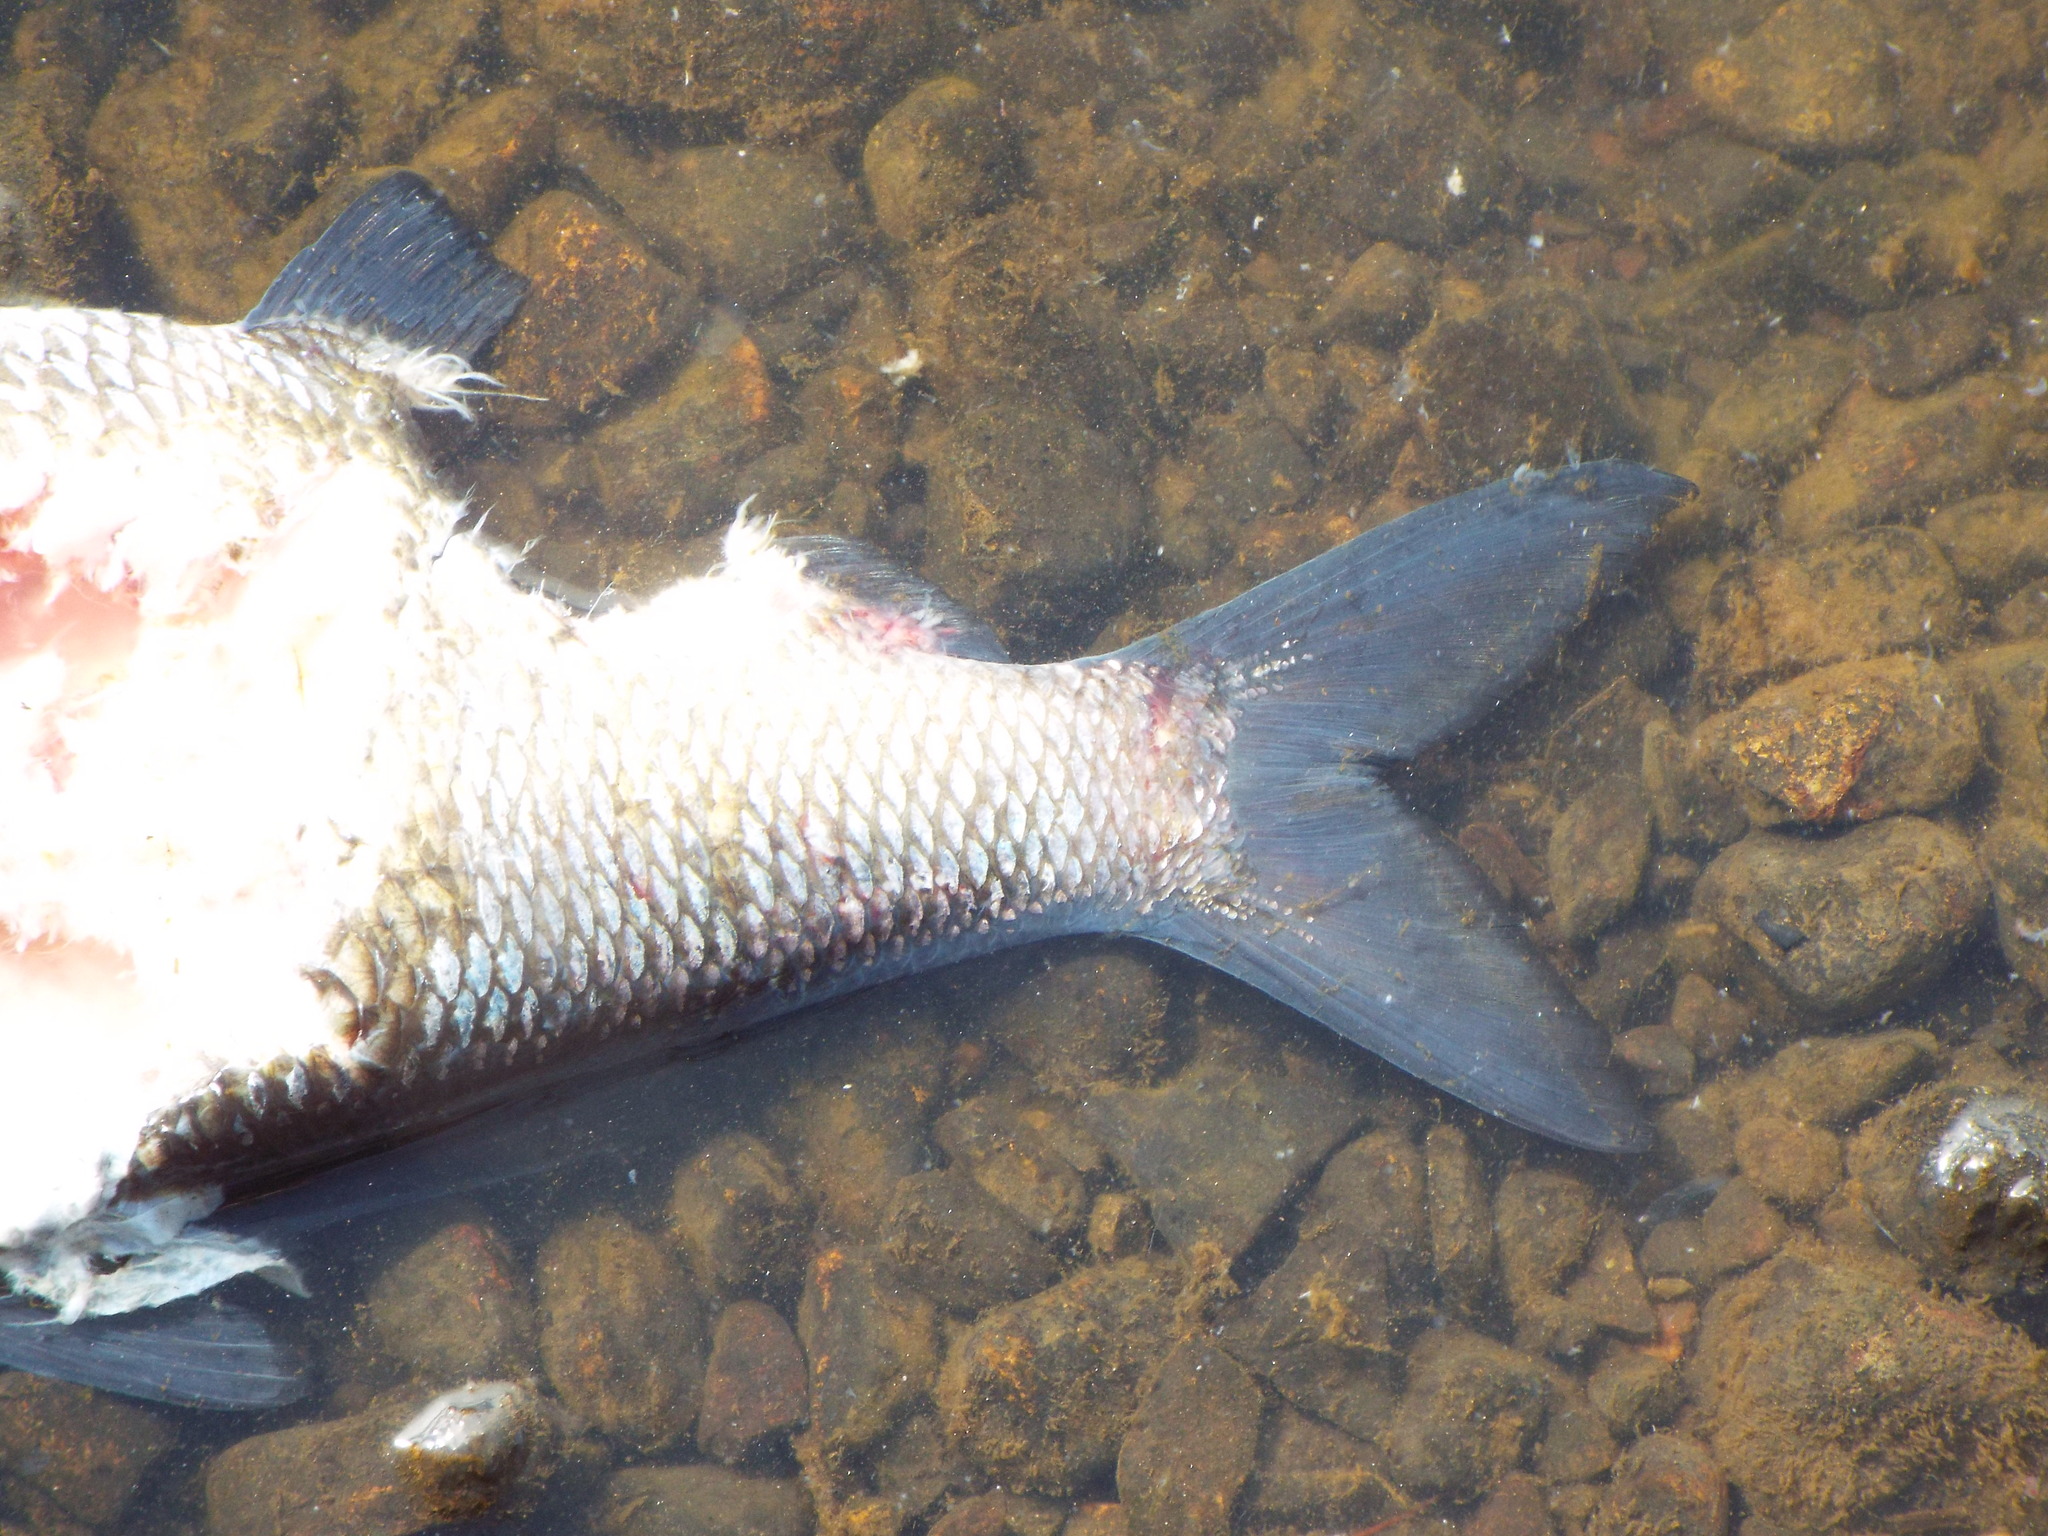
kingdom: Animalia
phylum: Chordata
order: Clupeiformes
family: Clupeidae
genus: Dorosoma
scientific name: Dorosoma cepedianum
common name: Gizzard shad
